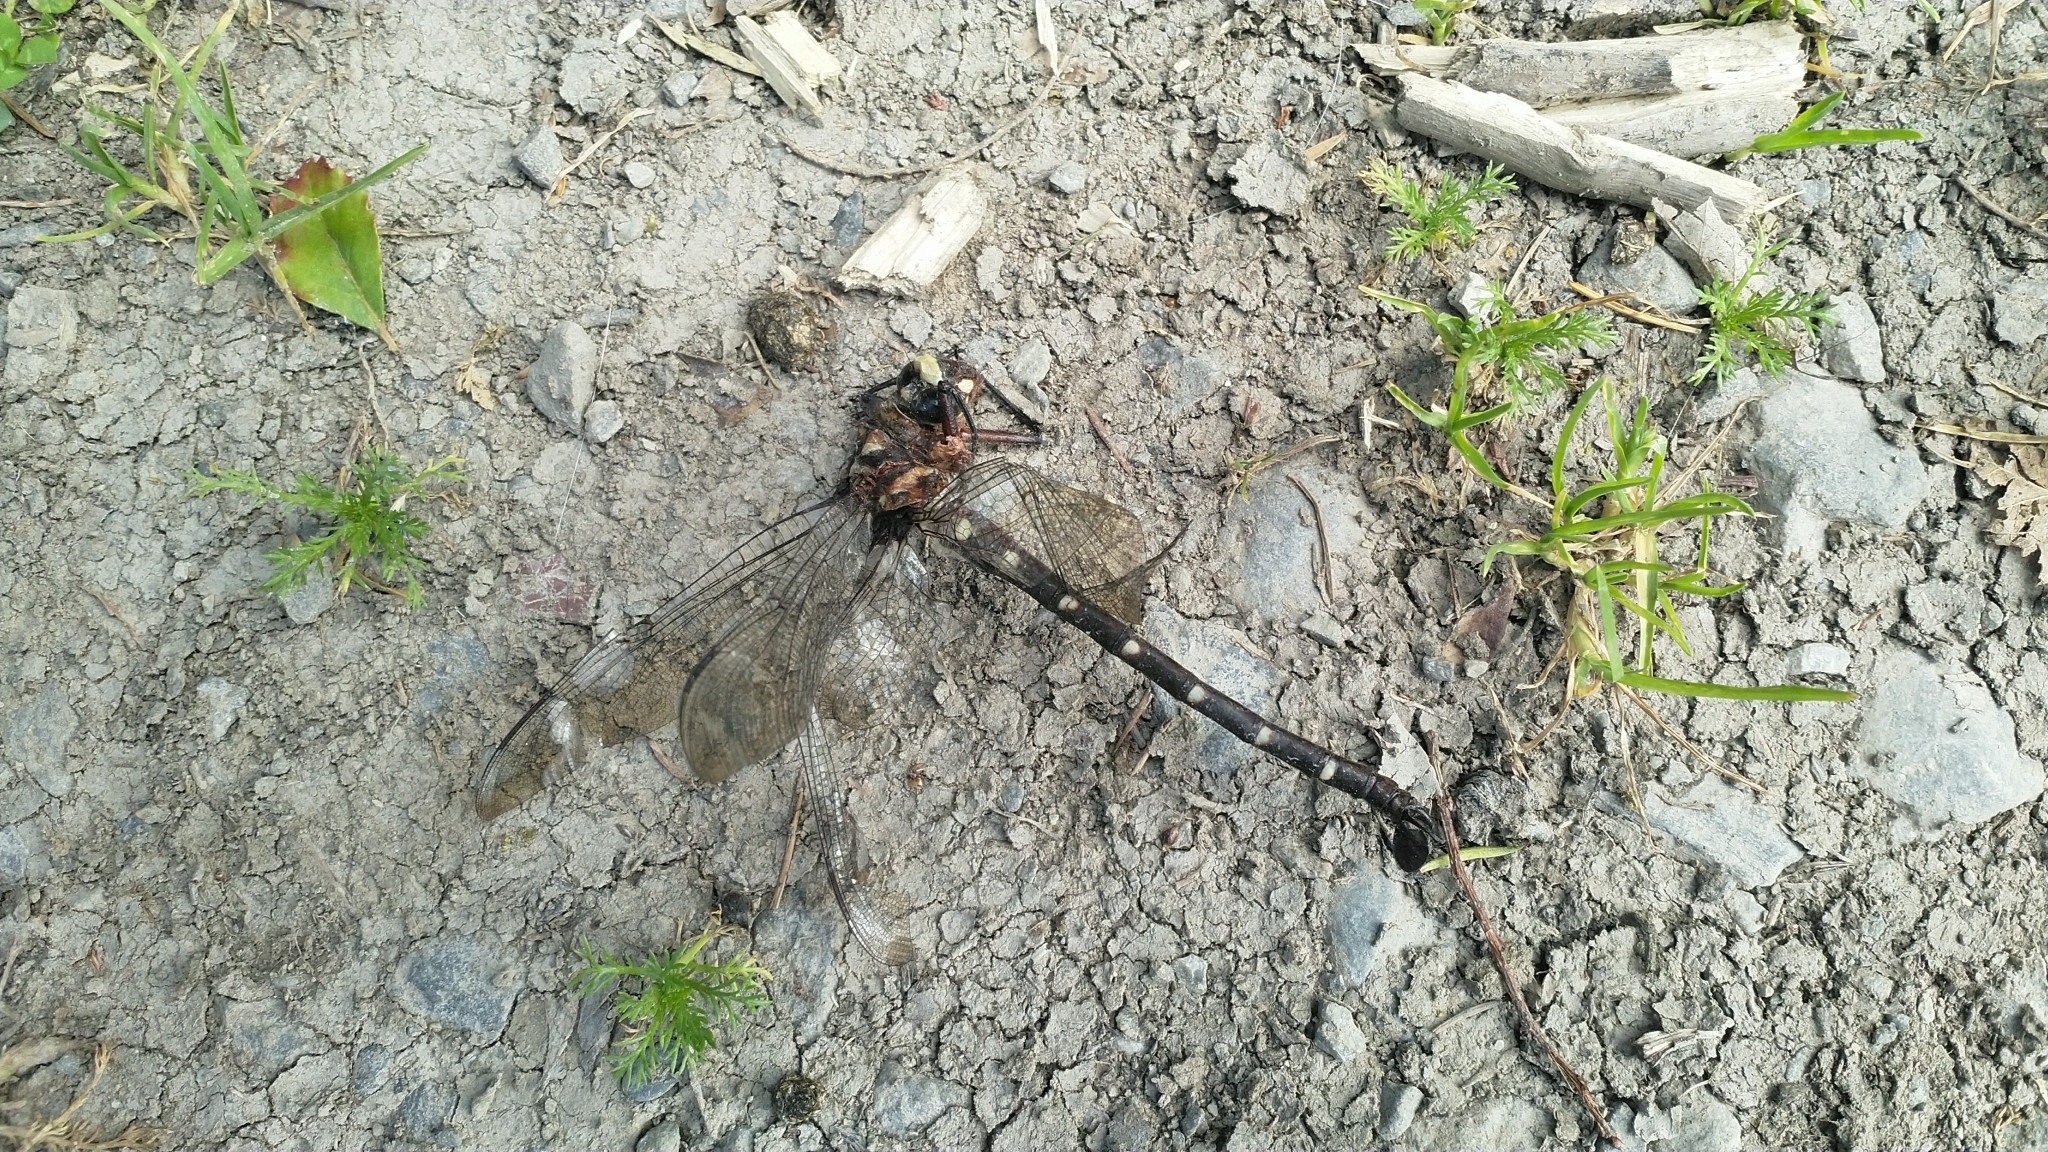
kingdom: Animalia
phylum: Arthropoda
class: Insecta
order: Odonata
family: Petaluridae
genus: Uropetala
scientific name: Uropetala carovei
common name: Bush giant dragonfly
